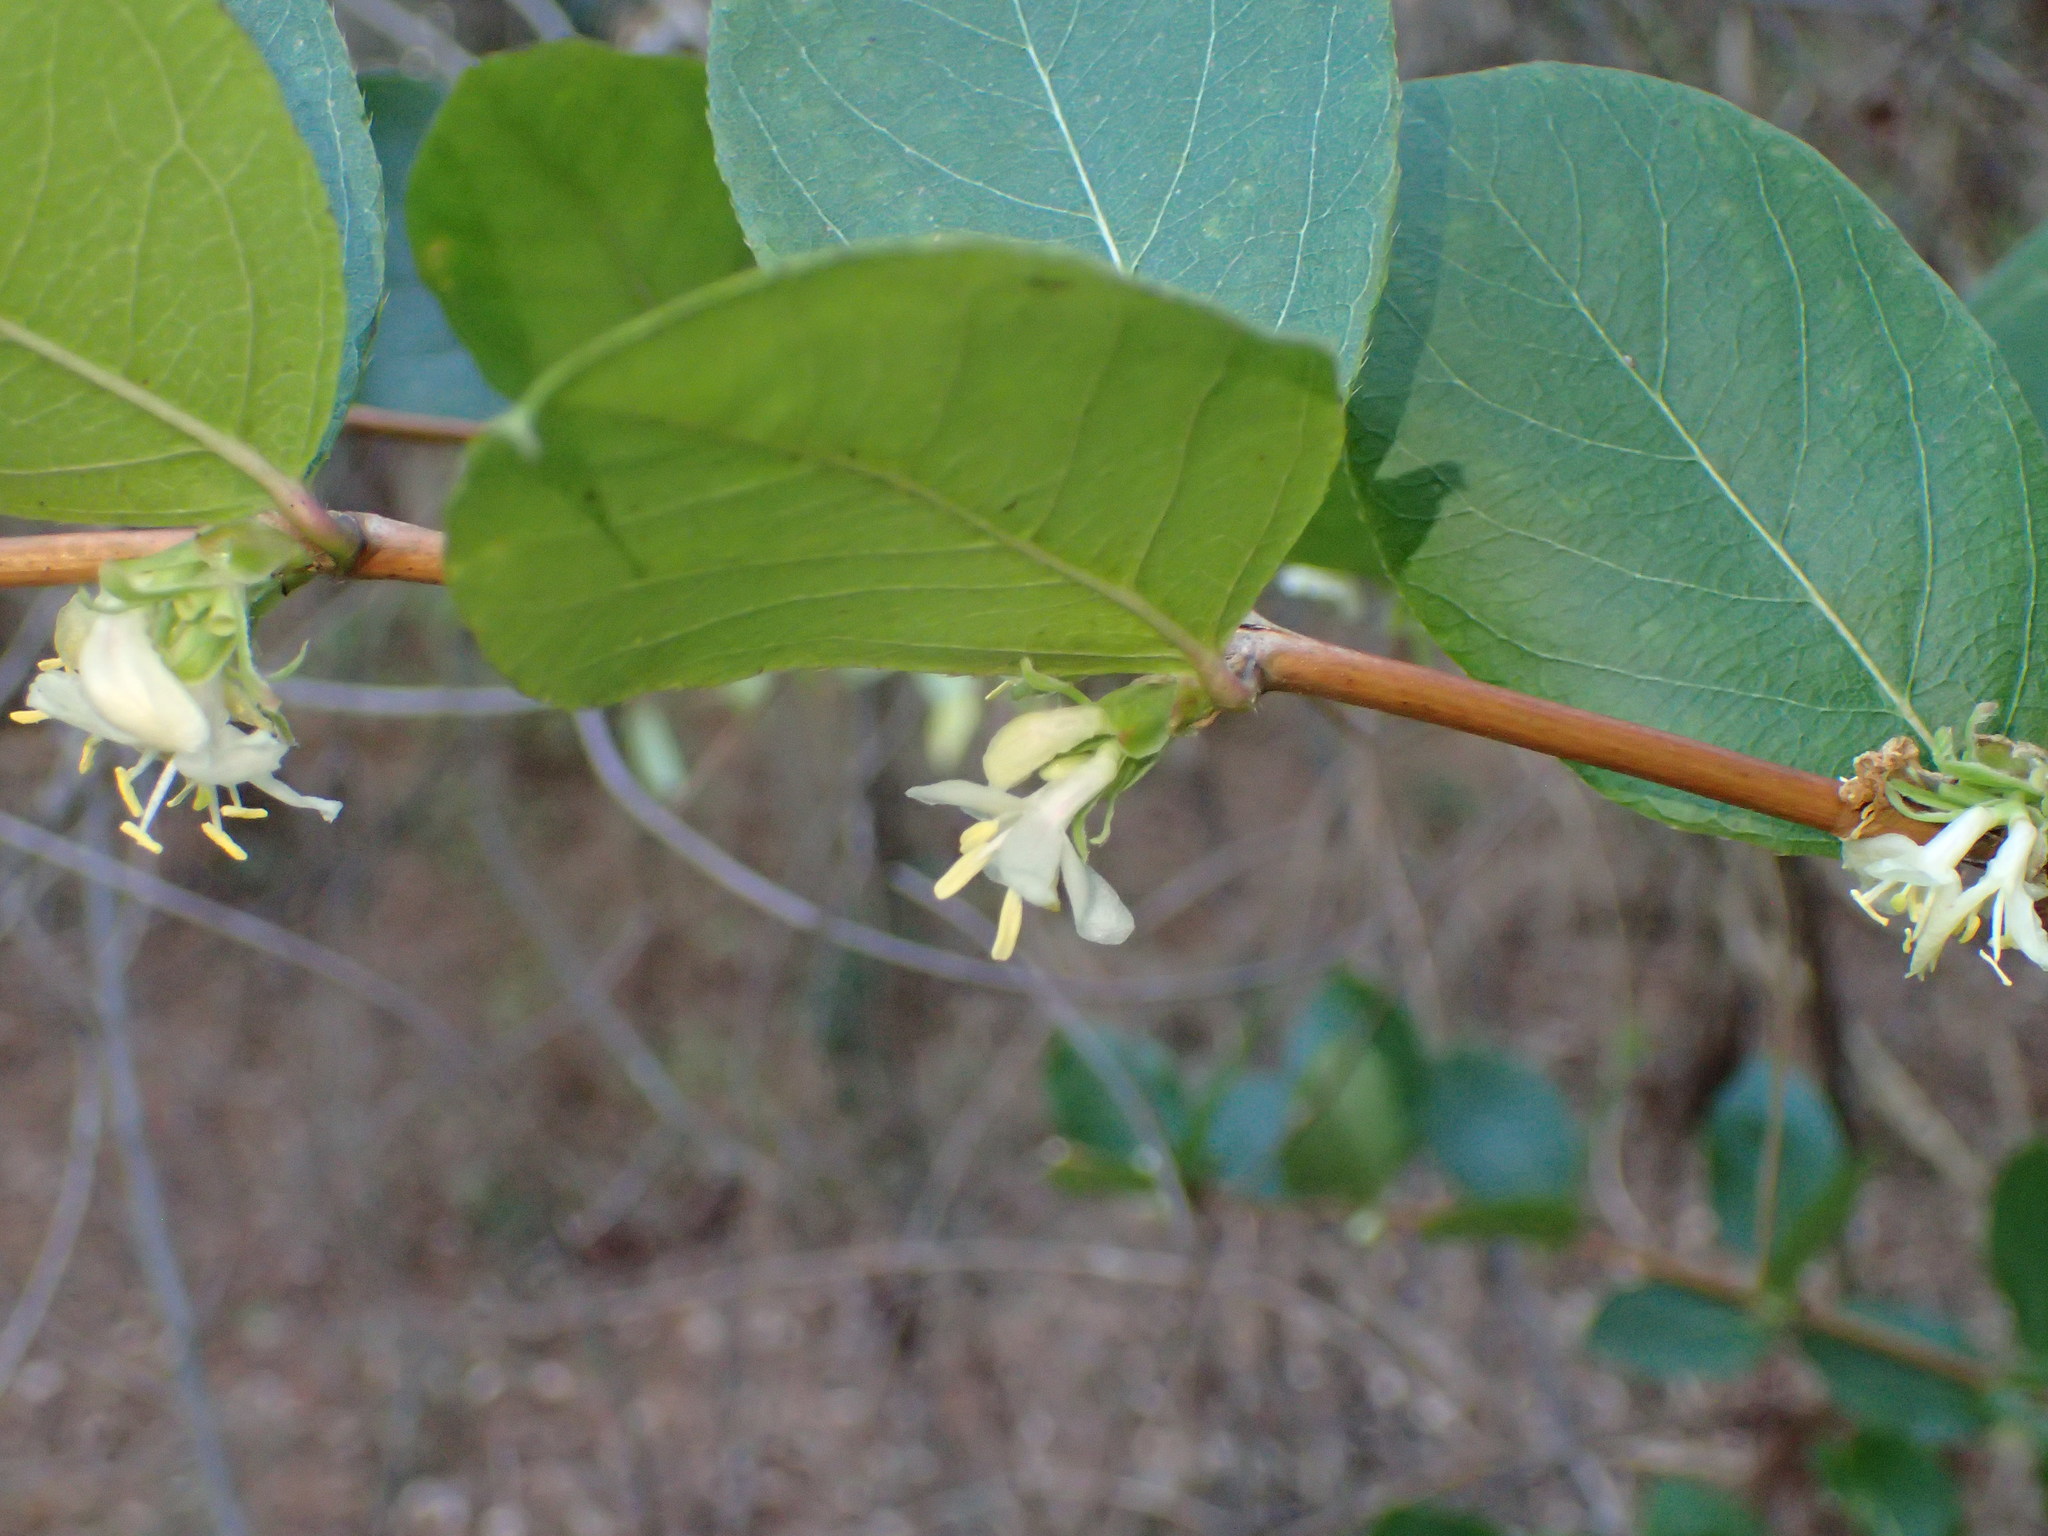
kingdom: Plantae
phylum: Tracheophyta
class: Magnoliopsida
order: Dipsacales
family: Caprifoliaceae
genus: Lonicera
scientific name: Lonicera fragrantissima
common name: Fragrant honeysuckle
